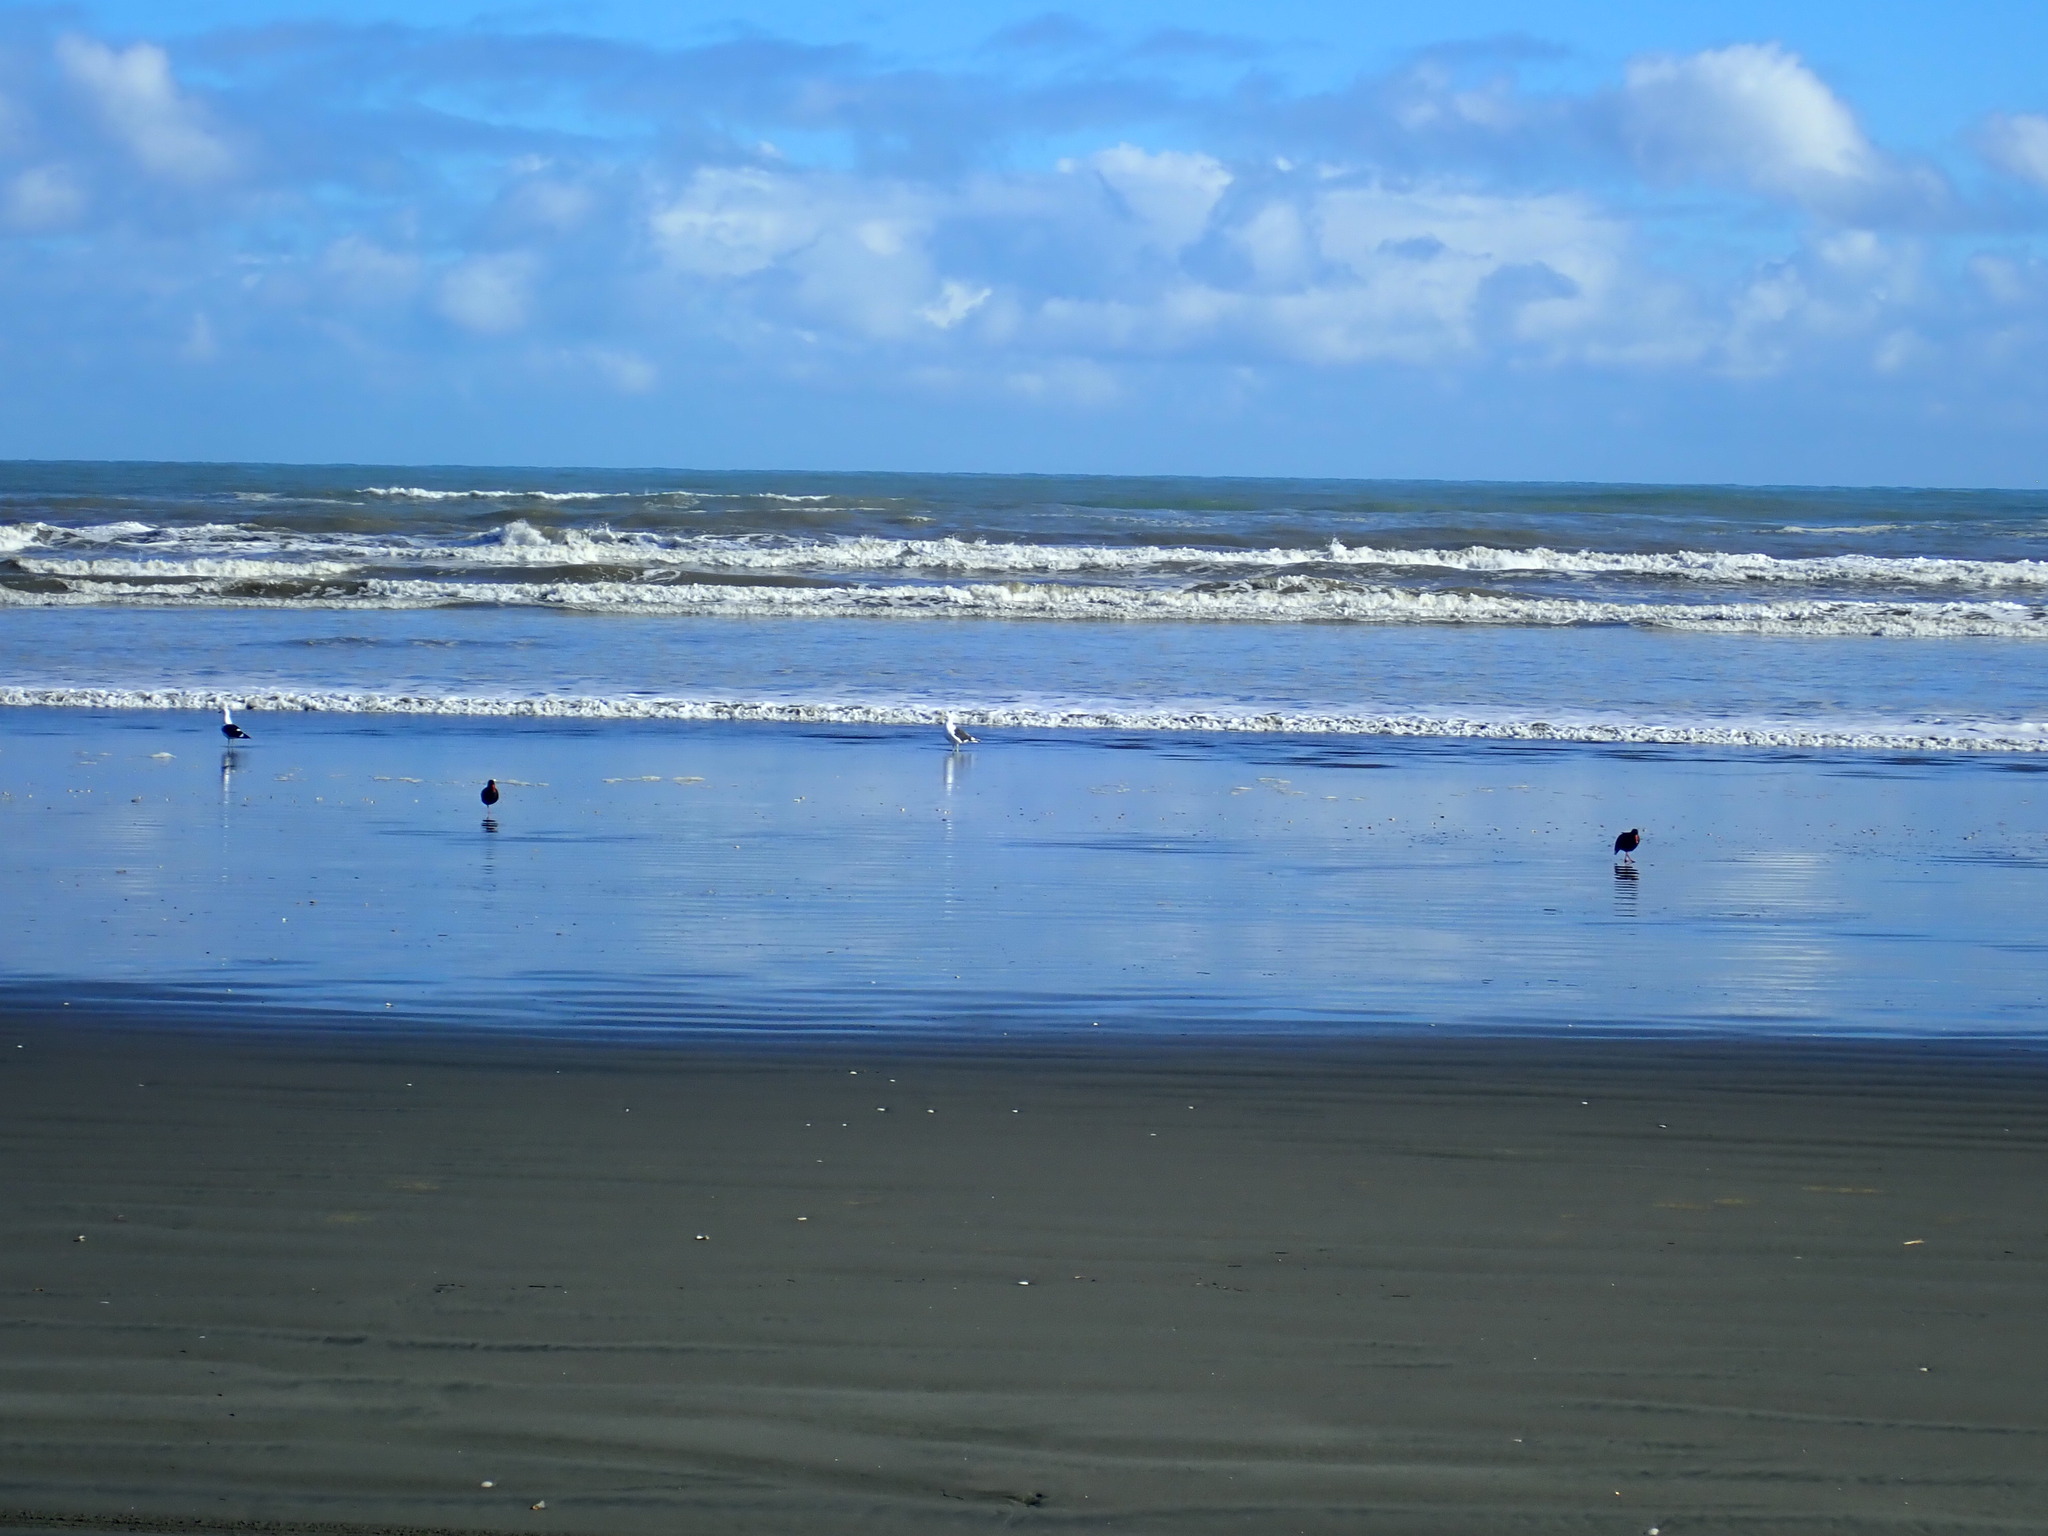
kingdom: Animalia
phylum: Chordata
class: Aves
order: Charadriiformes
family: Haematopodidae
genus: Haematopus
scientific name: Haematopus unicolor
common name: Variable oystercatcher
